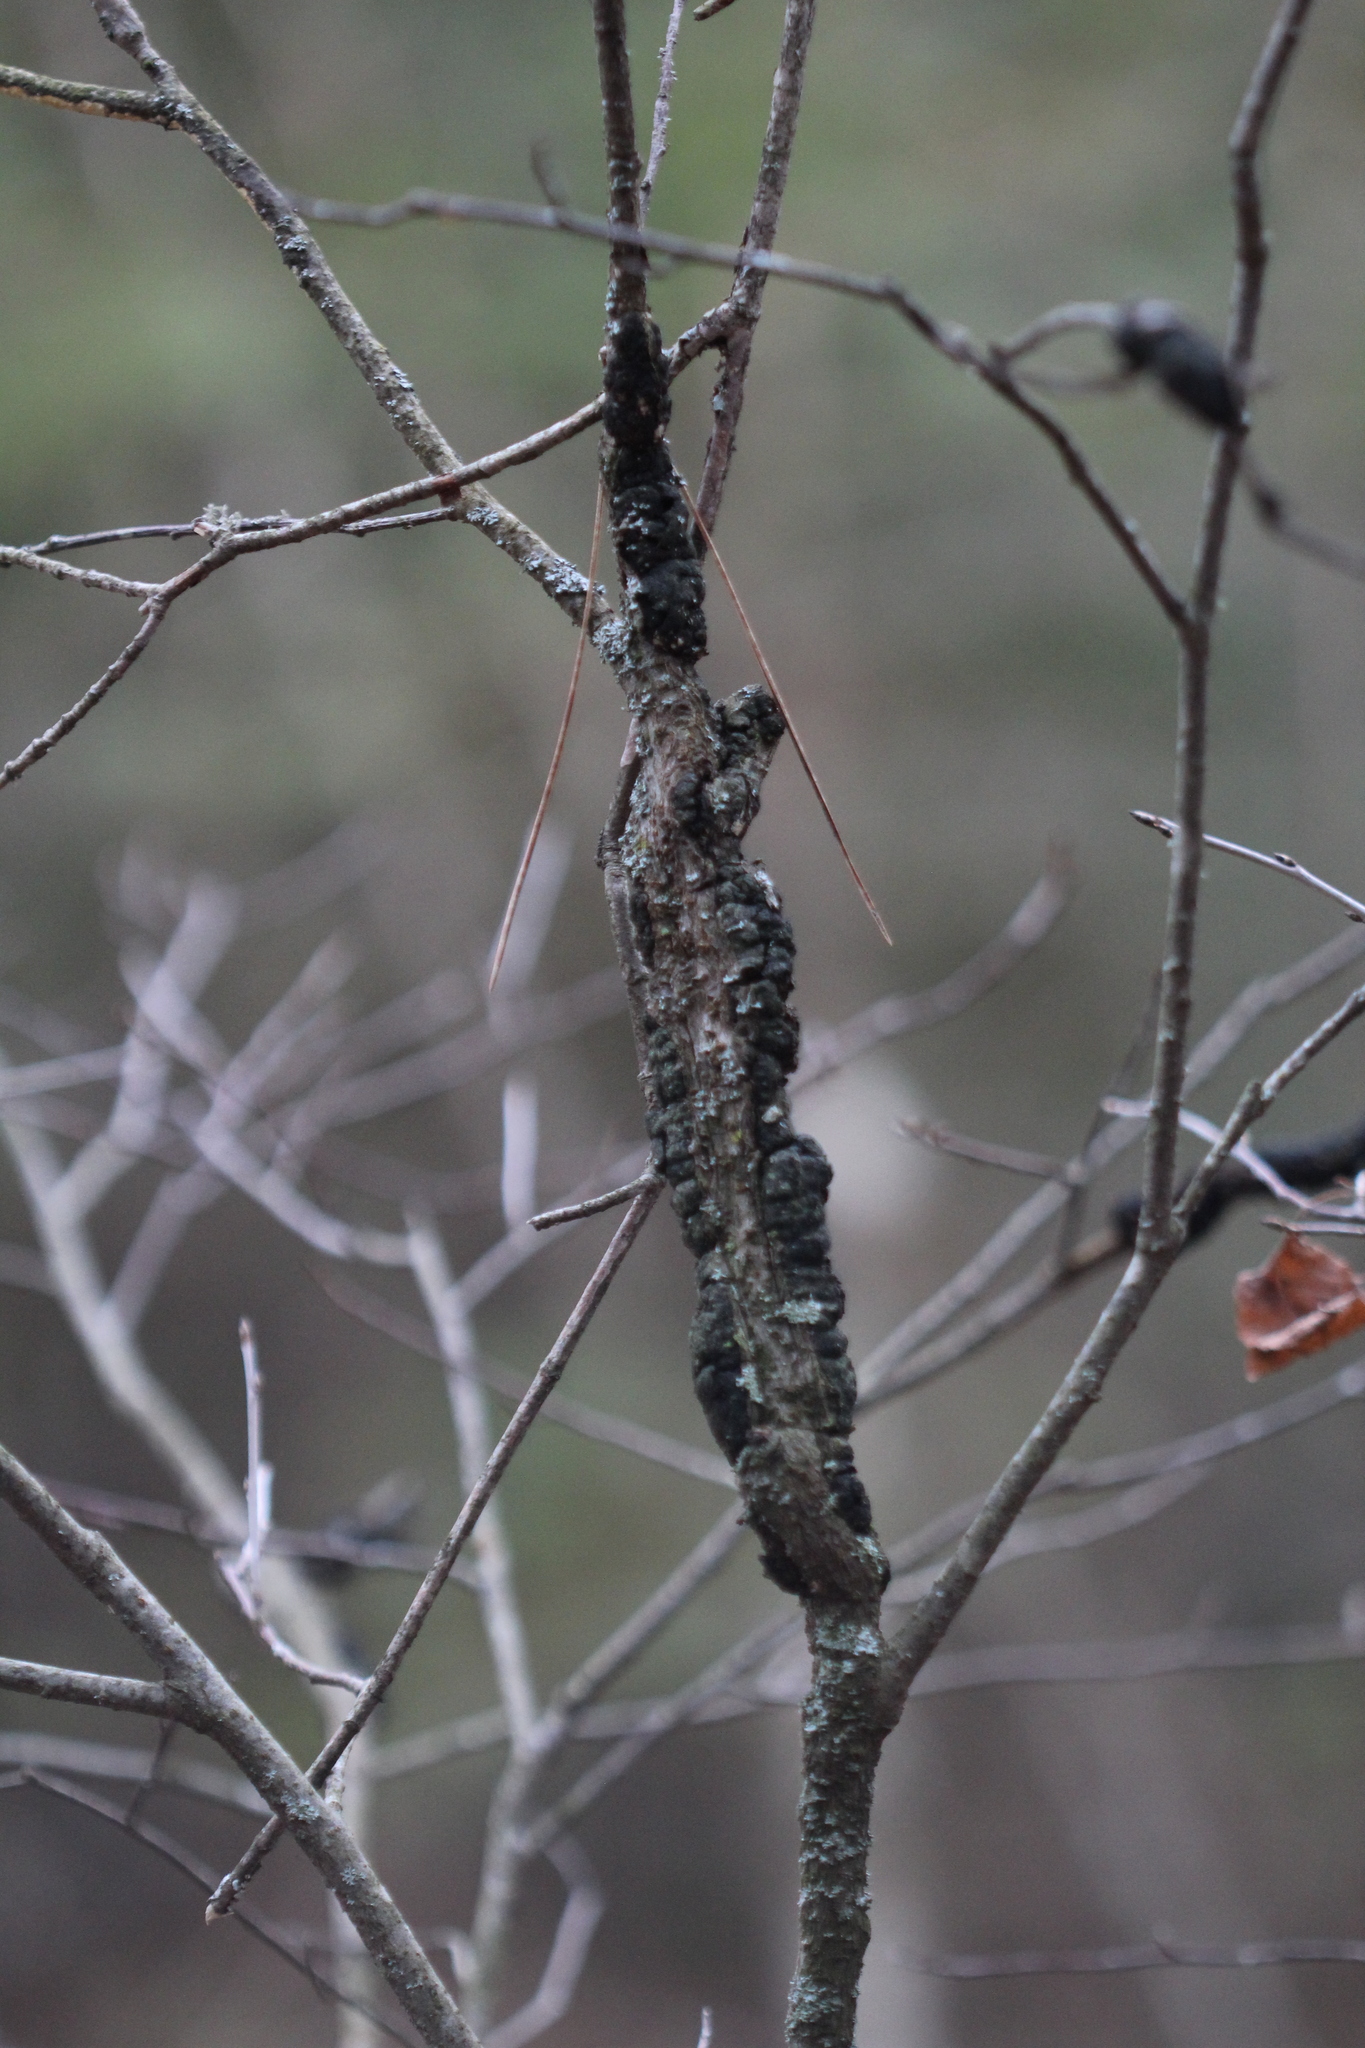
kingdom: Fungi
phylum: Ascomycota
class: Dothideomycetes
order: Venturiales
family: Venturiaceae
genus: Apiosporina
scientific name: Apiosporina morbosa
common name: Black knot
